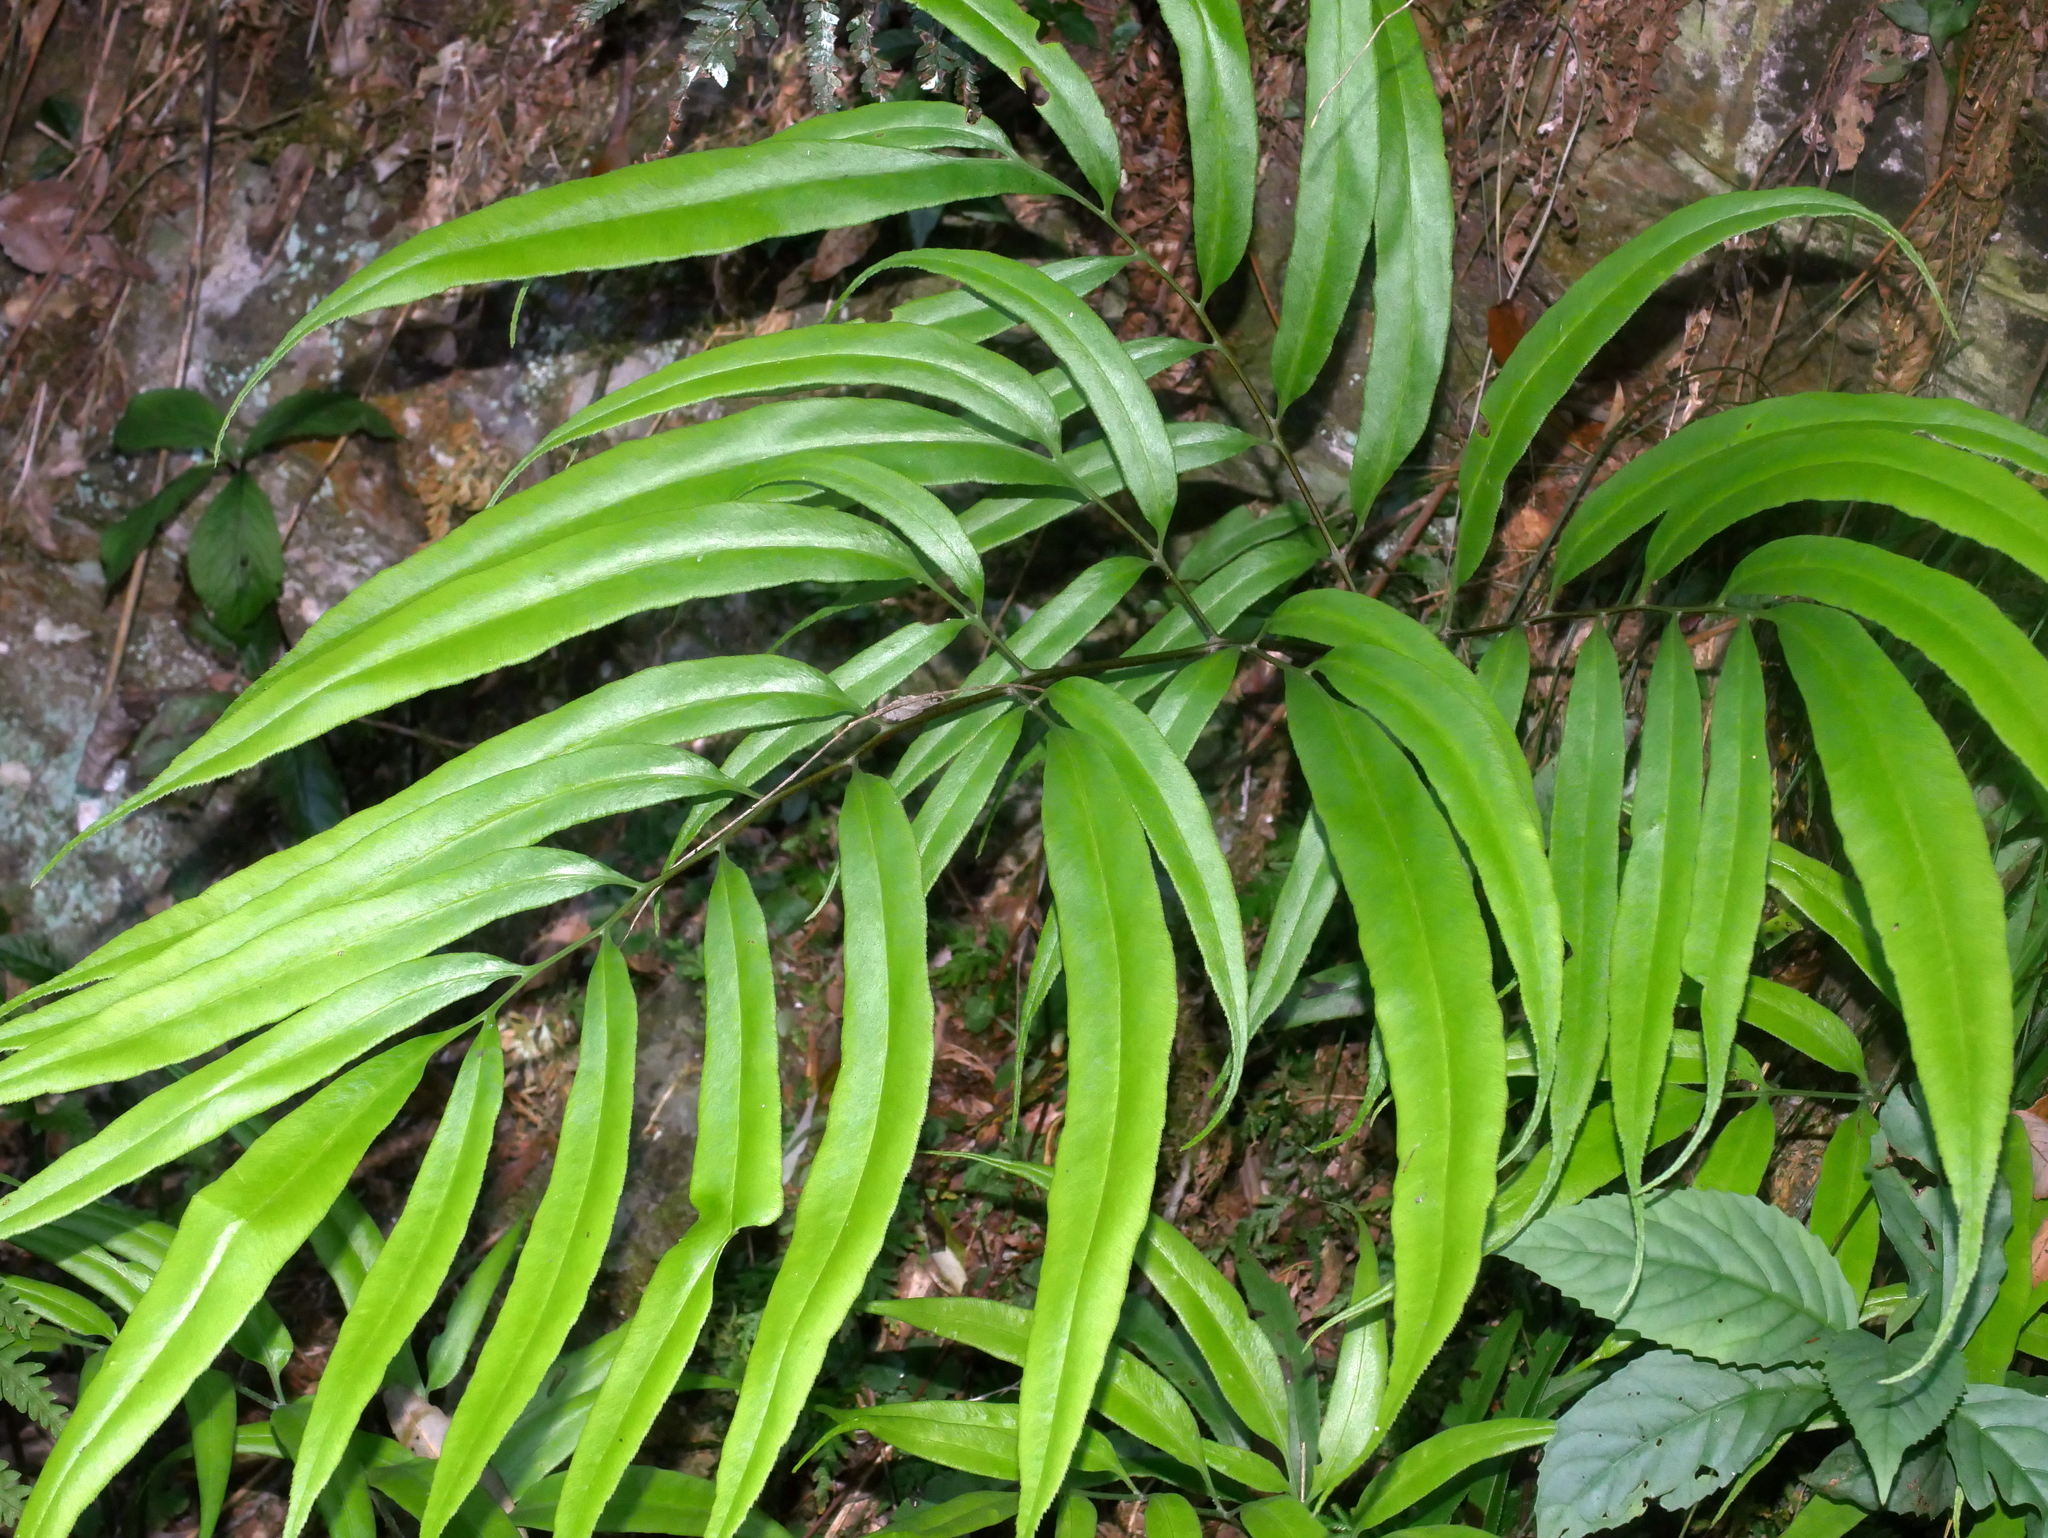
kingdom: Plantae
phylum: Tracheophyta
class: Polypodiopsida
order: Polypodiales
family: Pteridaceae
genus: Coniogramme
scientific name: Coniogramme japonica
